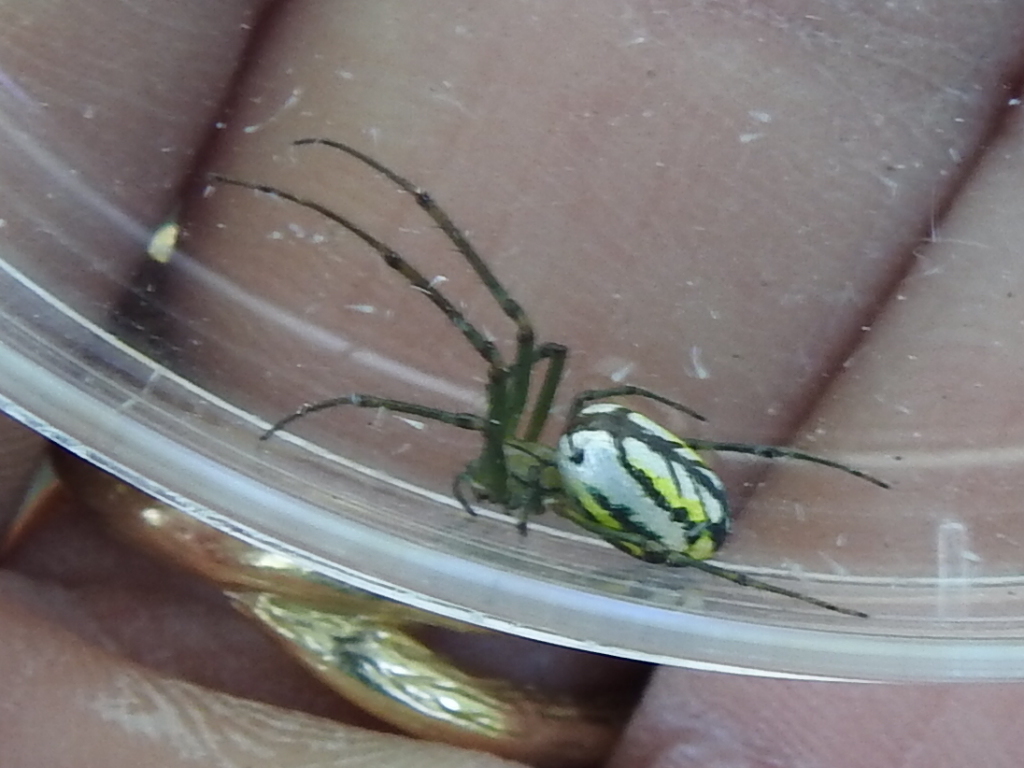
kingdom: Animalia
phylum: Arthropoda
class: Arachnida
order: Araneae
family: Tetragnathidae
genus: Leucauge
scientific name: Leucauge venusta
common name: Longjawed orb weavers
